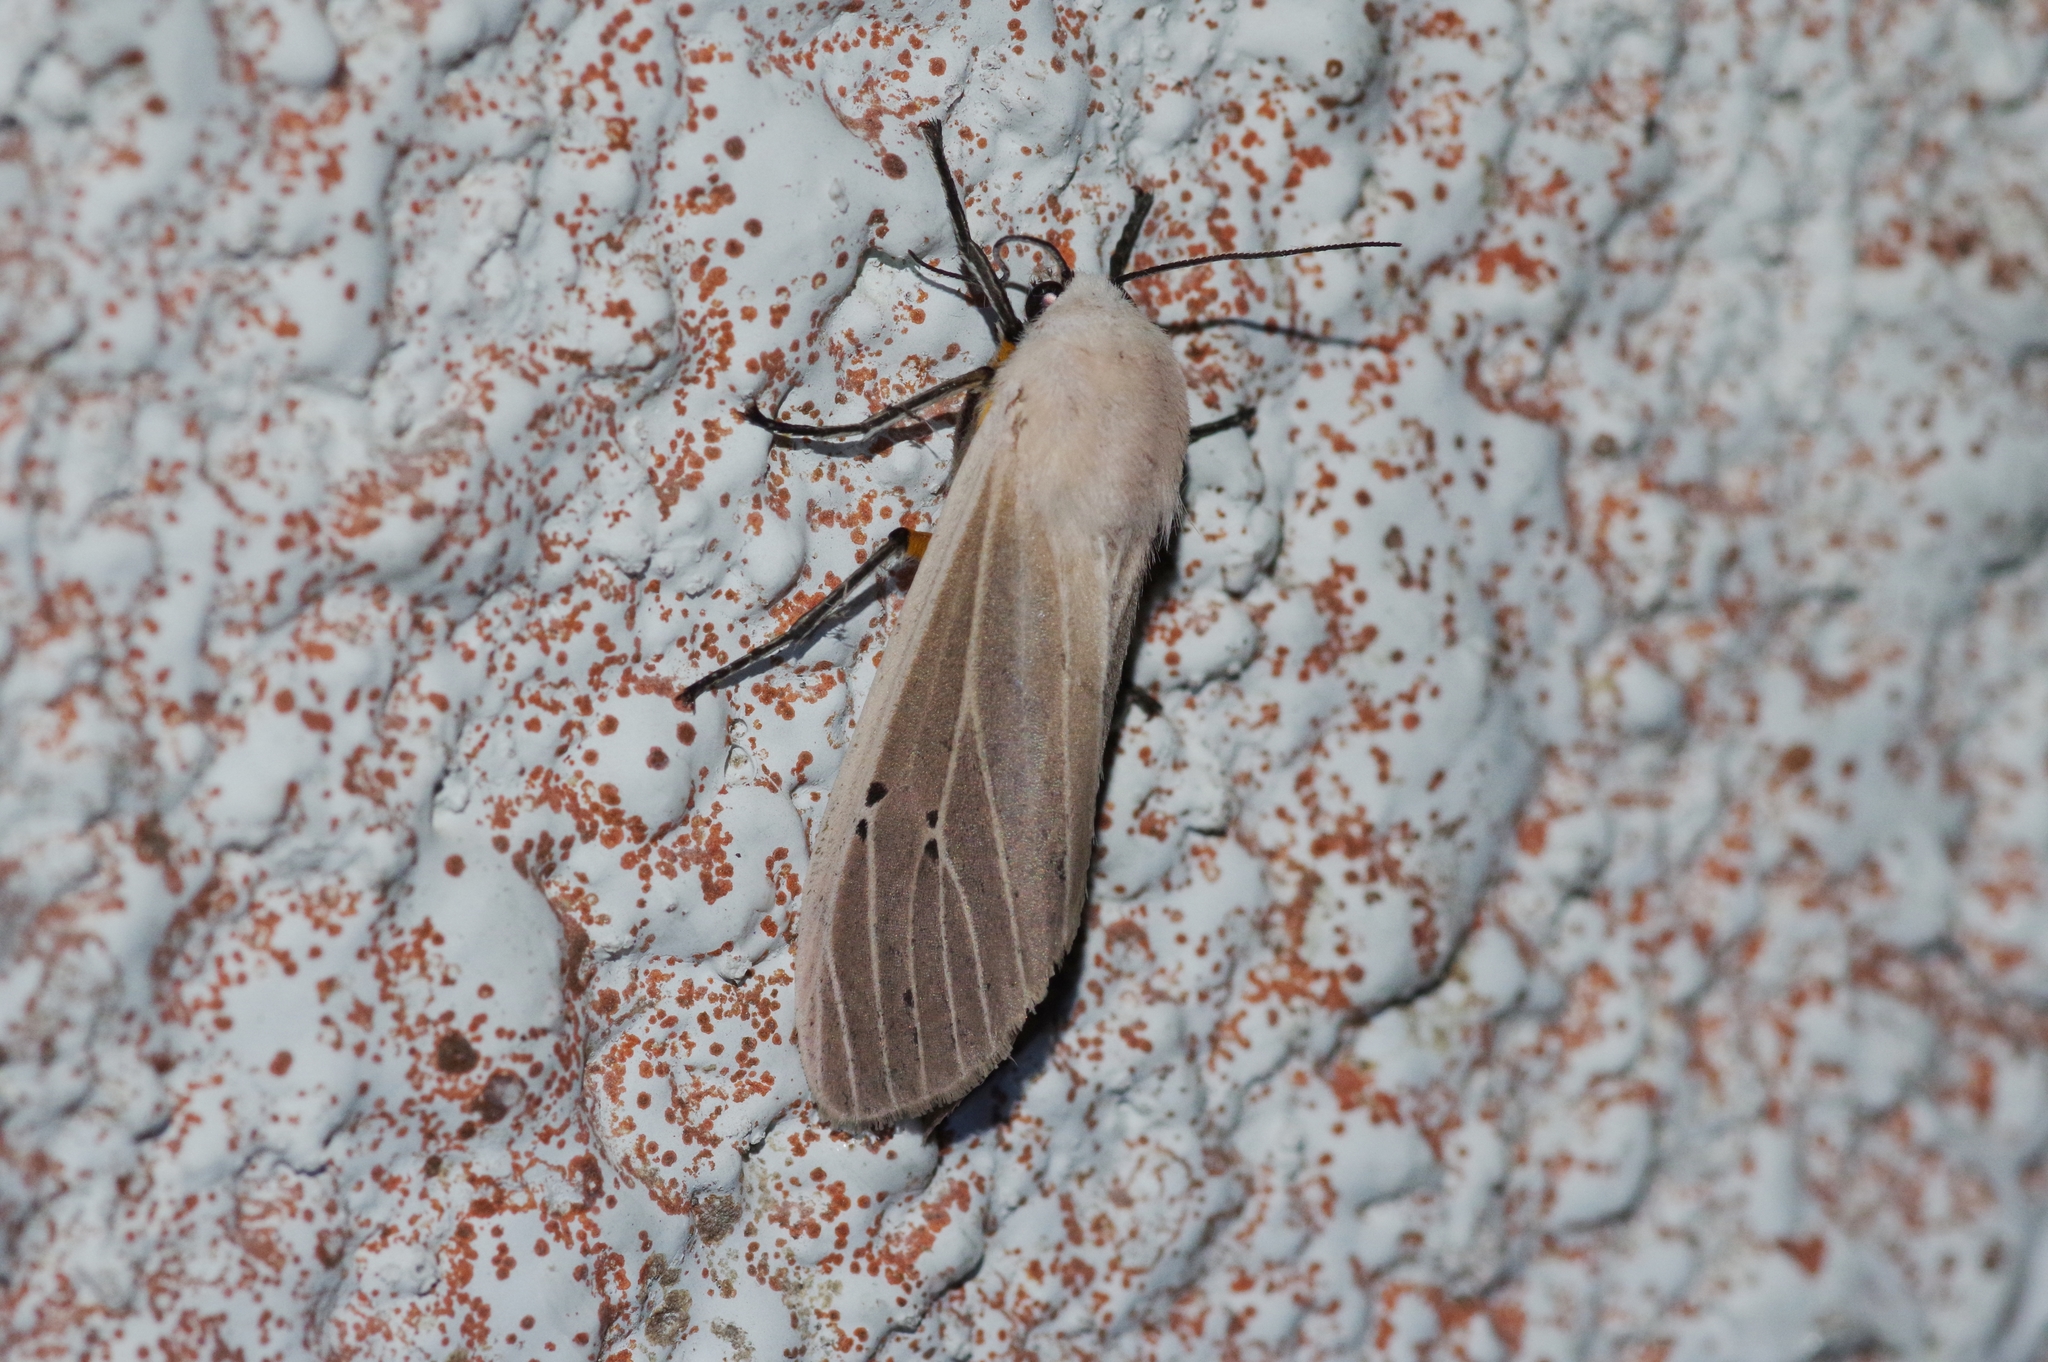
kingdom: Animalia
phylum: Arthropoda
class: Insecta
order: Lepidoptera
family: Erebidae
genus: Creatonotos
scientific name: Creatonotos transiens
